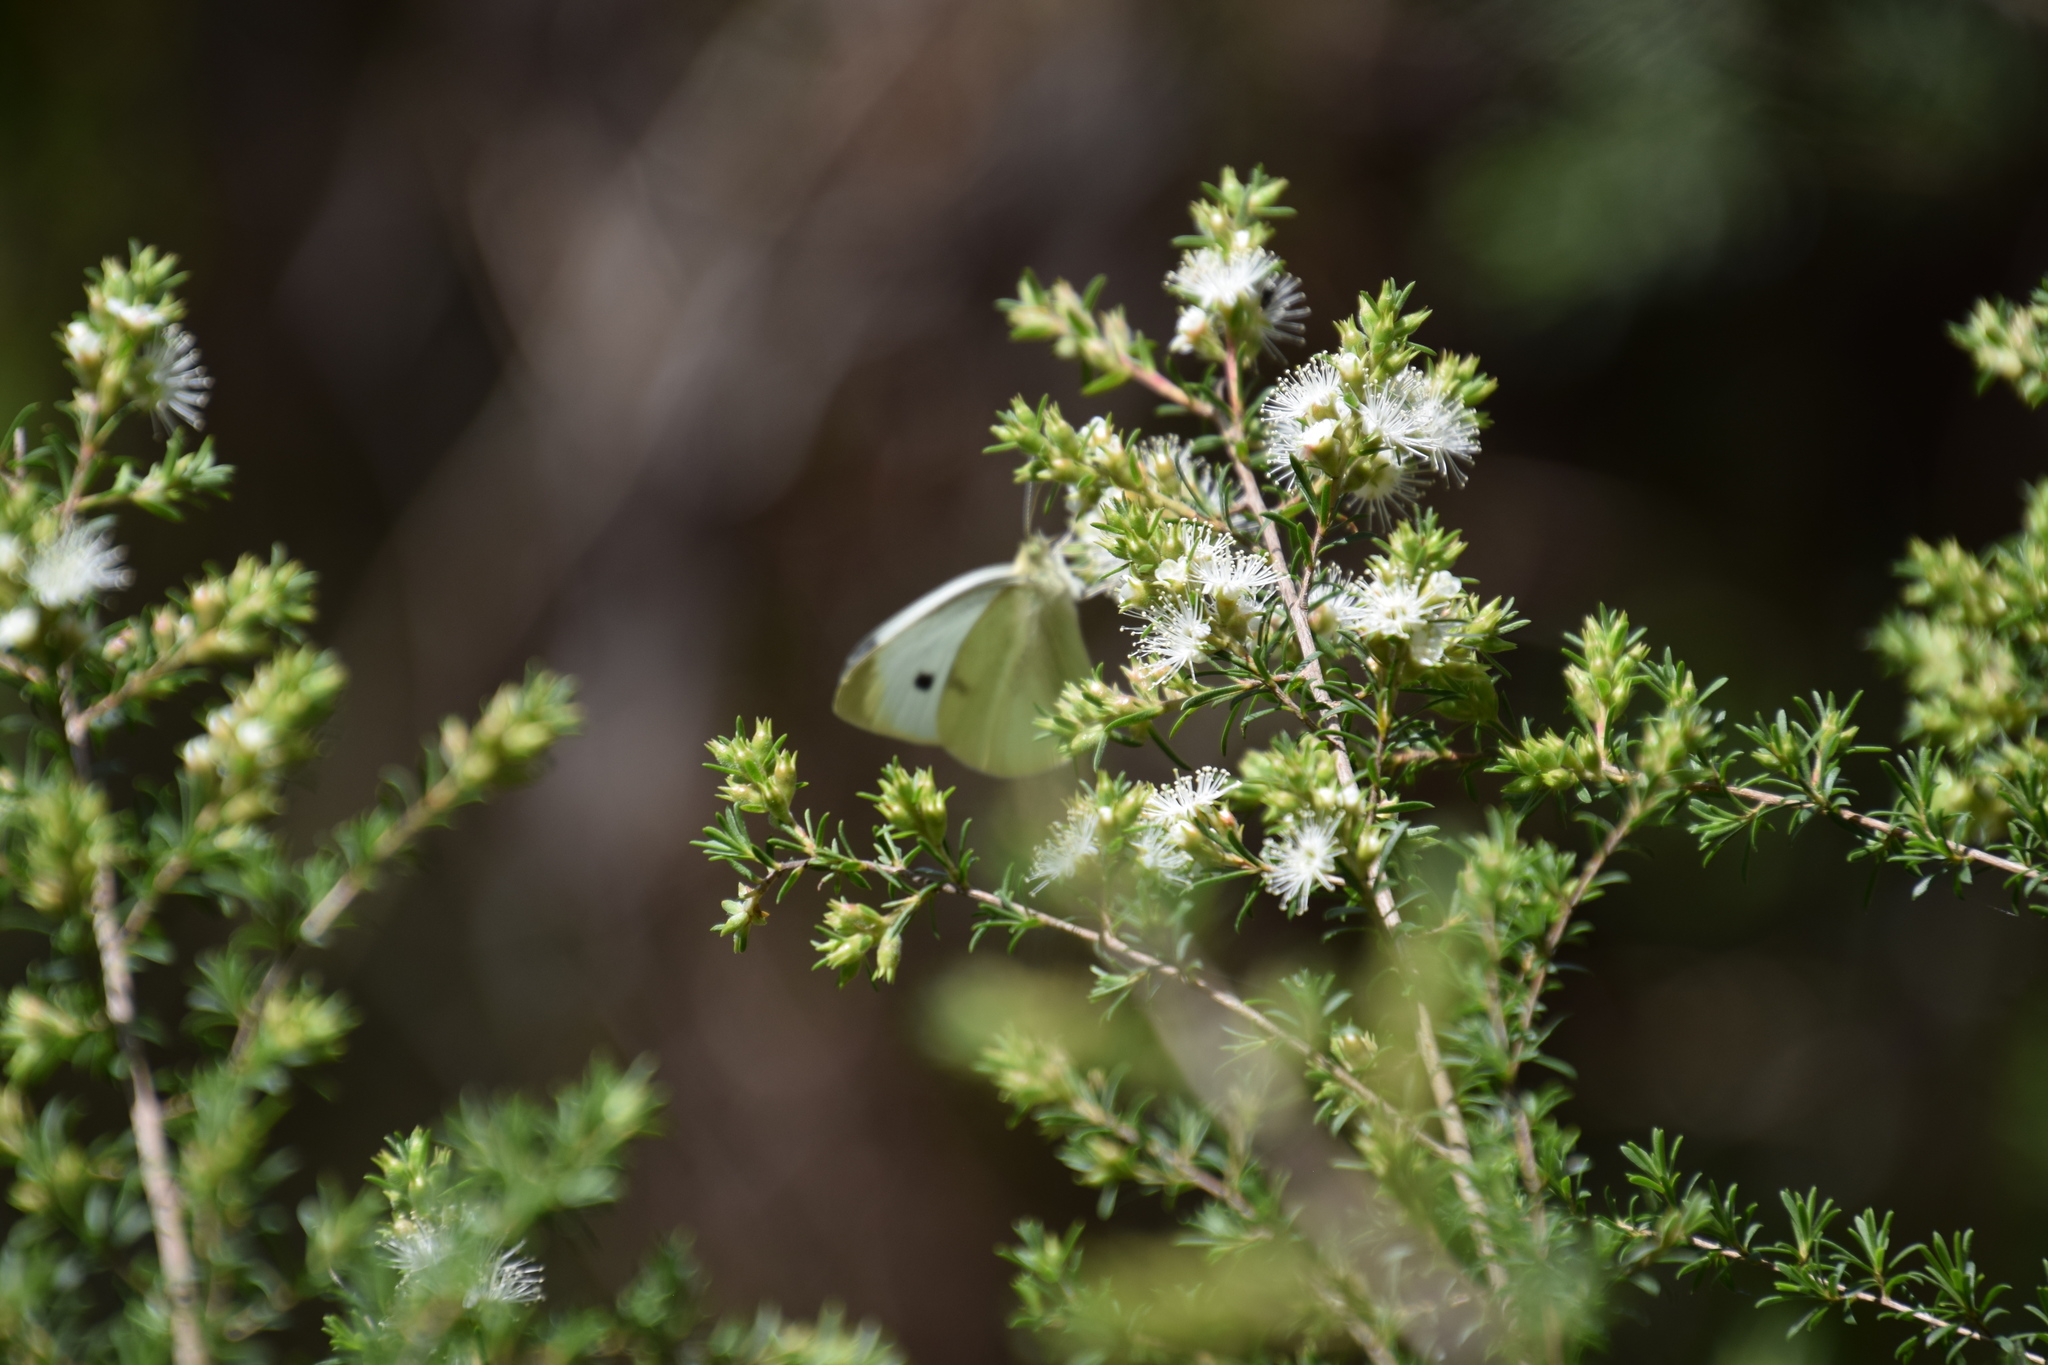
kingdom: Animalia
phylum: Arthropoda
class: Insecta
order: Lepidoptera
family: Pieridae
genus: Pieris
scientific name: Pieris rapae
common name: Small white
